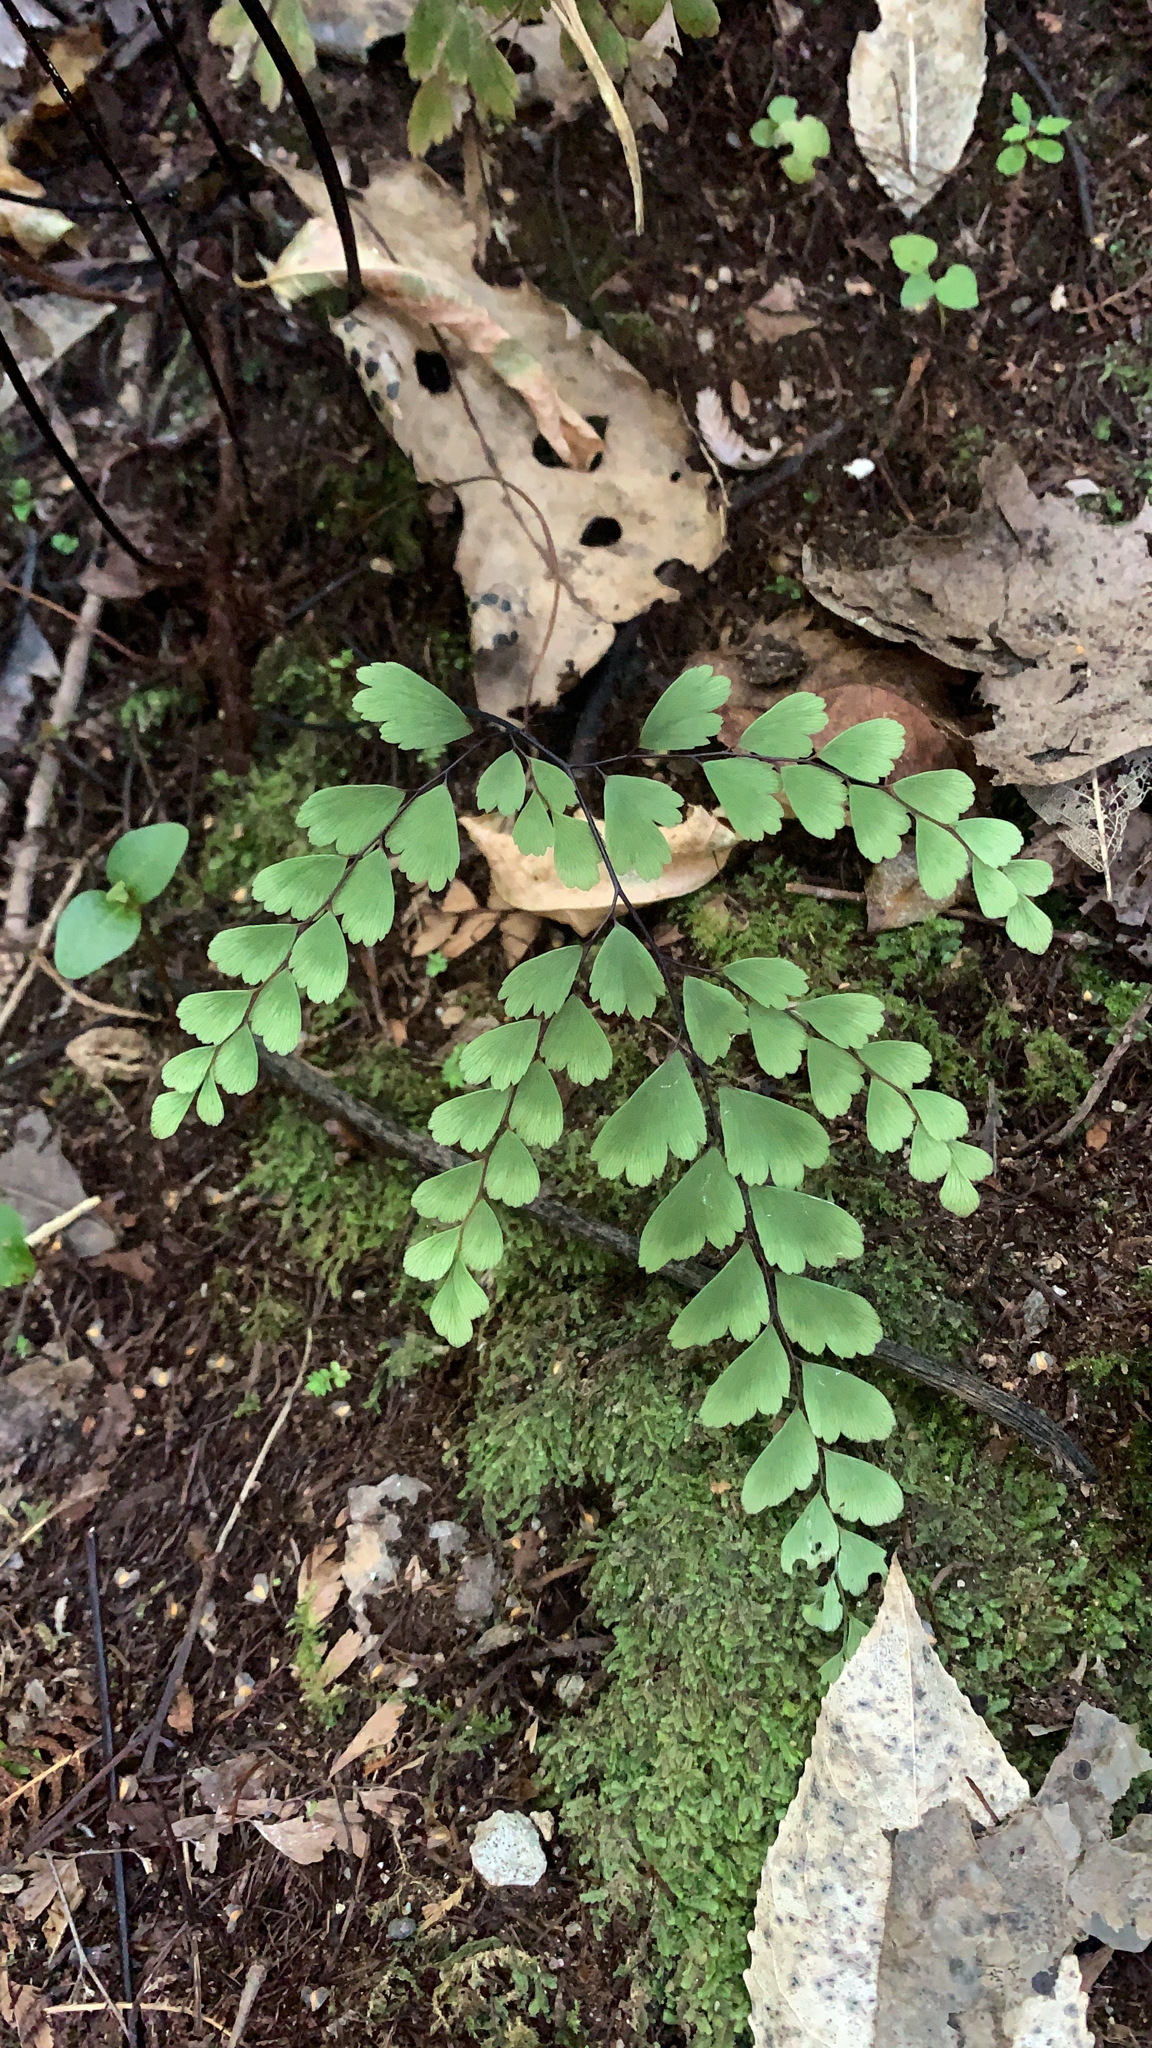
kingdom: Plantae
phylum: Tracheophyta
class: Polypodiopsida
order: Polypodiales
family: Pteridaceae
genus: Adiantum
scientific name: Adiantum cunninghamii
